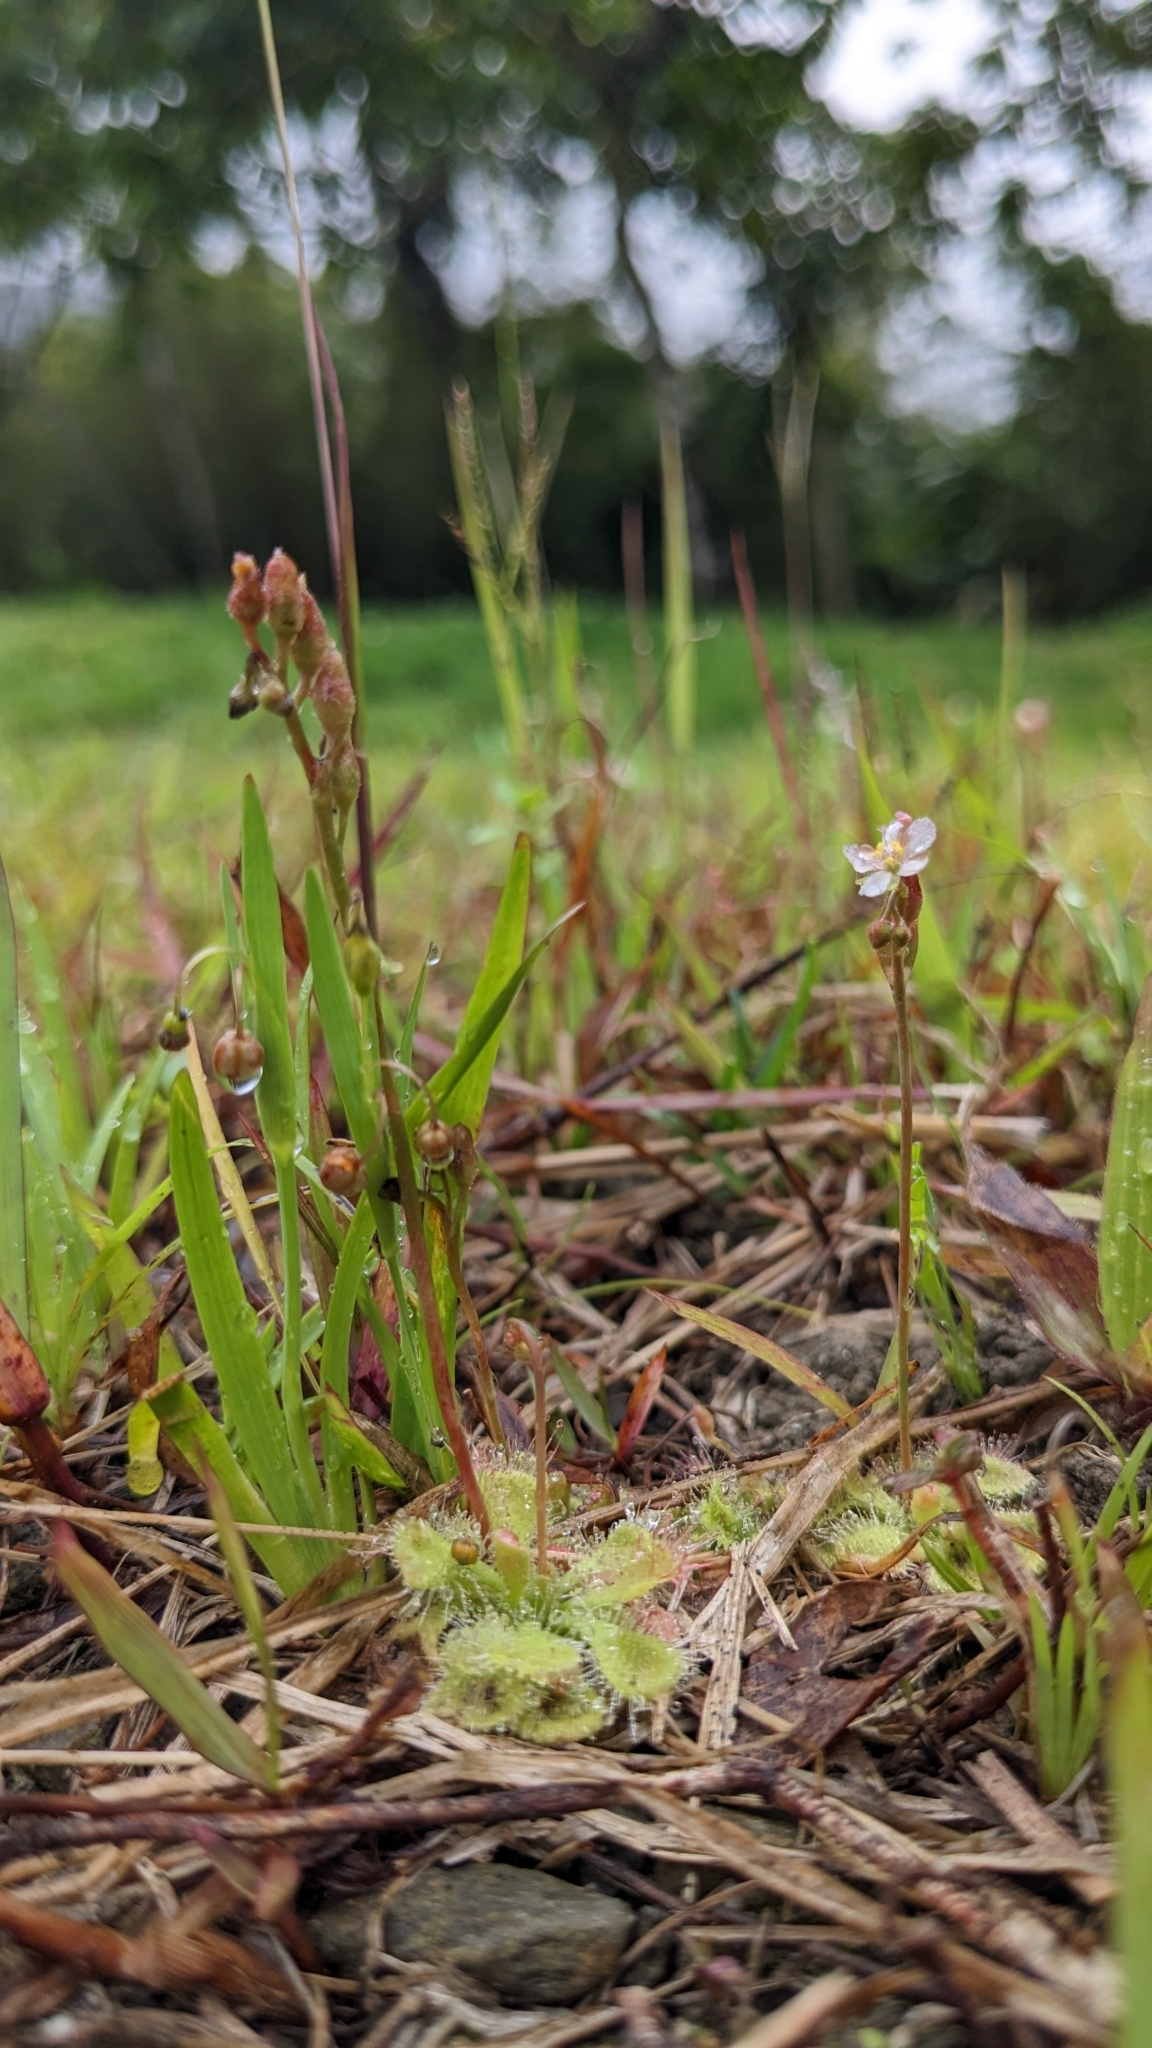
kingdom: Plantae
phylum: Tracheophyta
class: Magnoliopsida
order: Caryophyllales
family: Droseraceae
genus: Drosera
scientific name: Drosera spatulata
